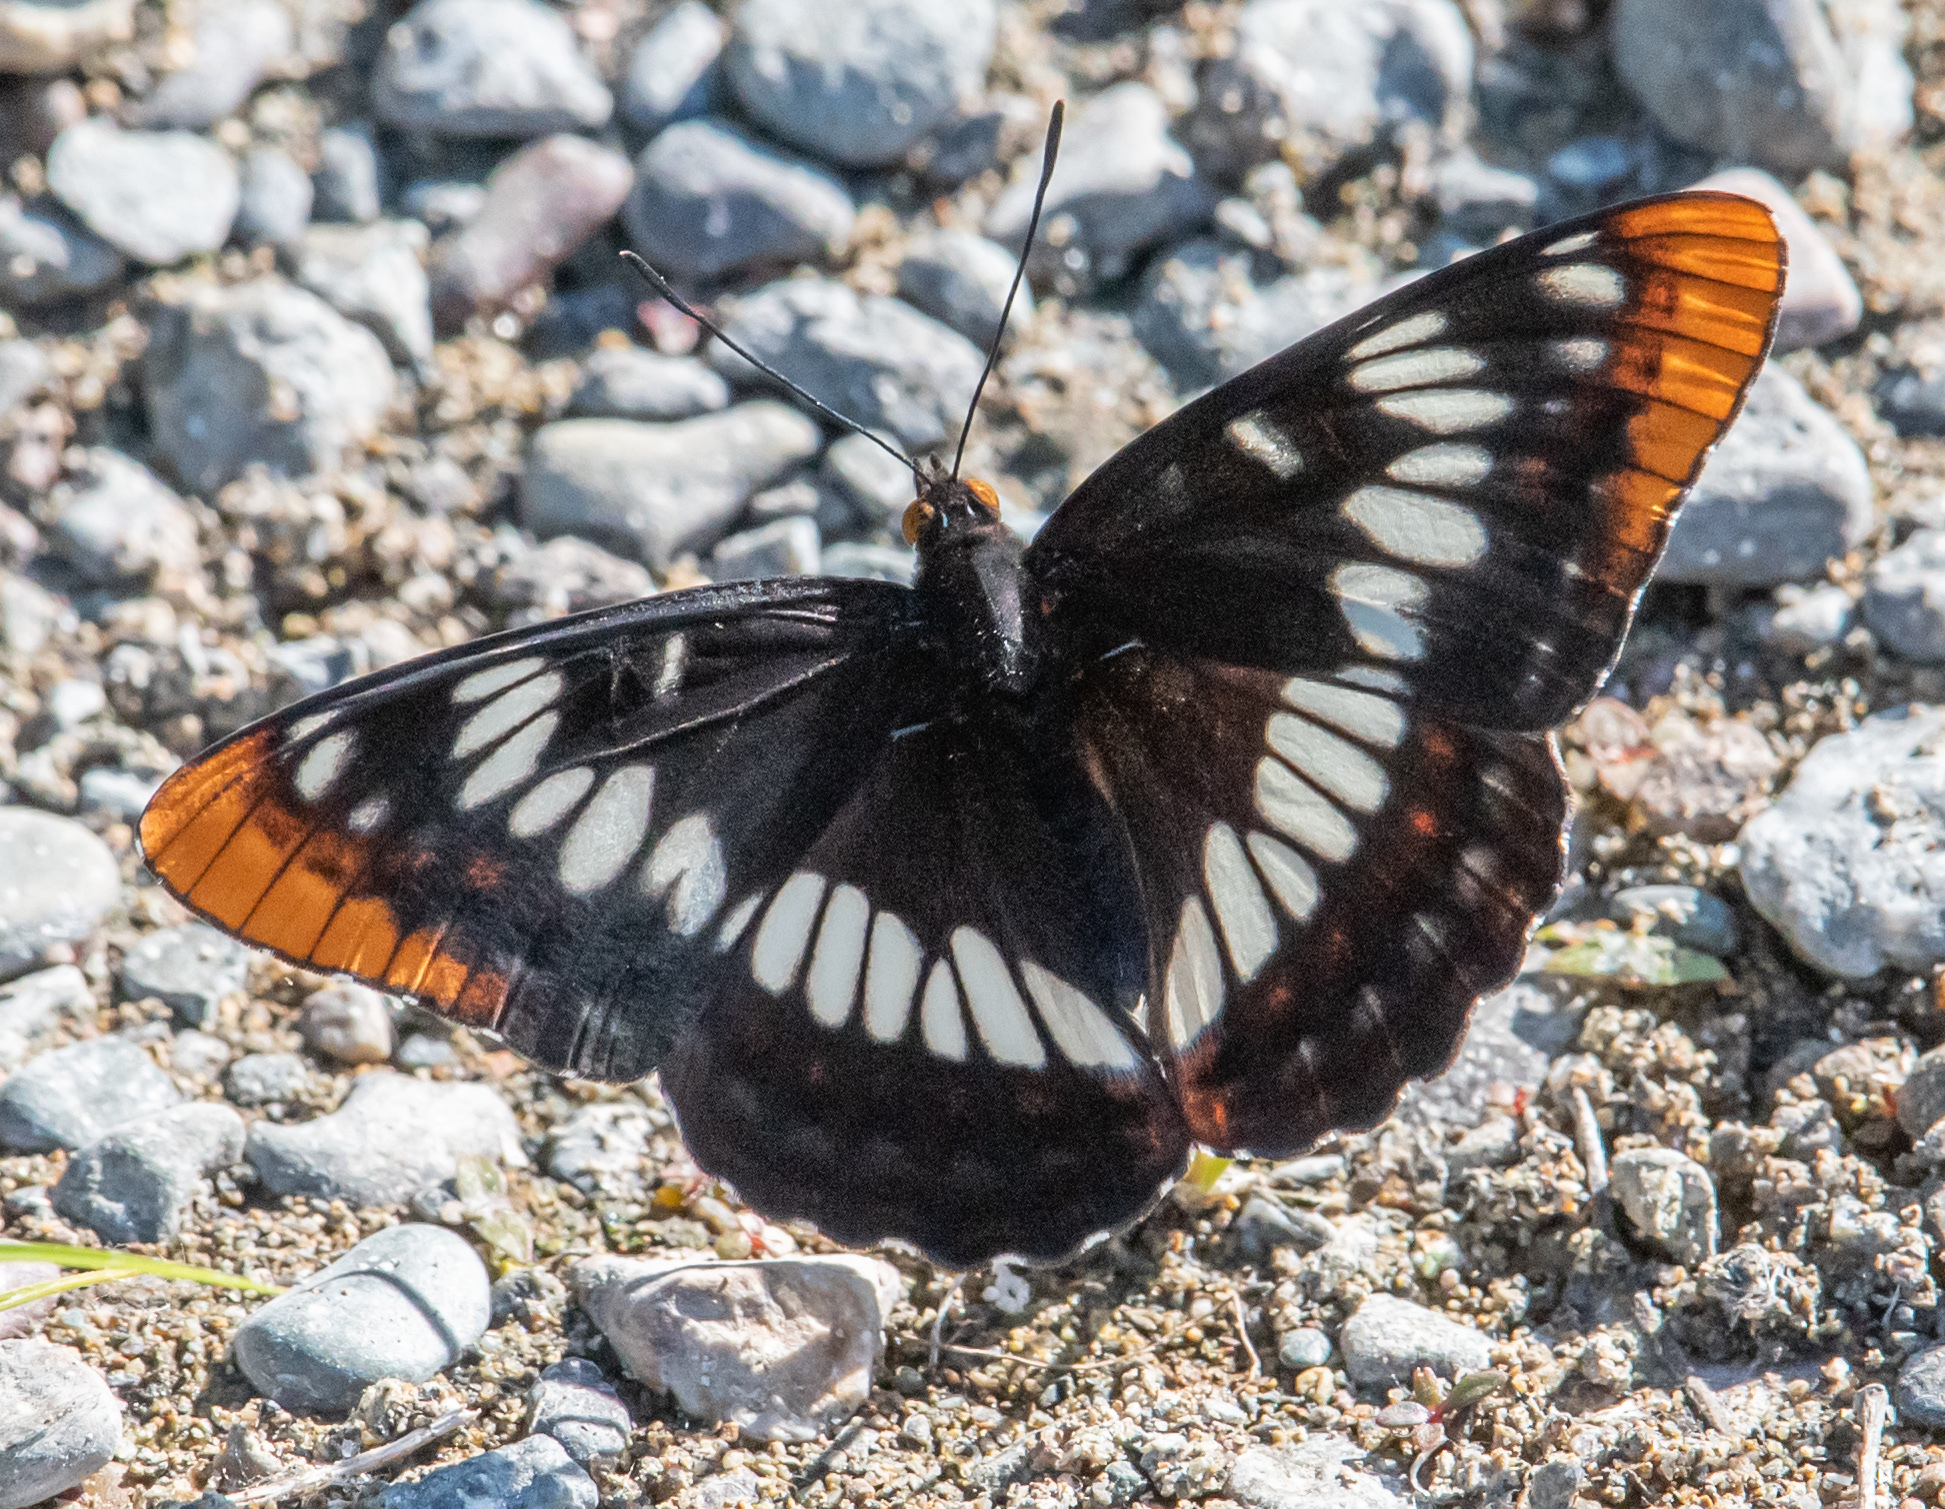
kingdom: Animalia
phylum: Arthropoda
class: Insecta
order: Lepidoptera
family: Nymphalidae
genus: Limenitis
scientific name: Limenitis lorquini
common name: Lorquin's admiral
